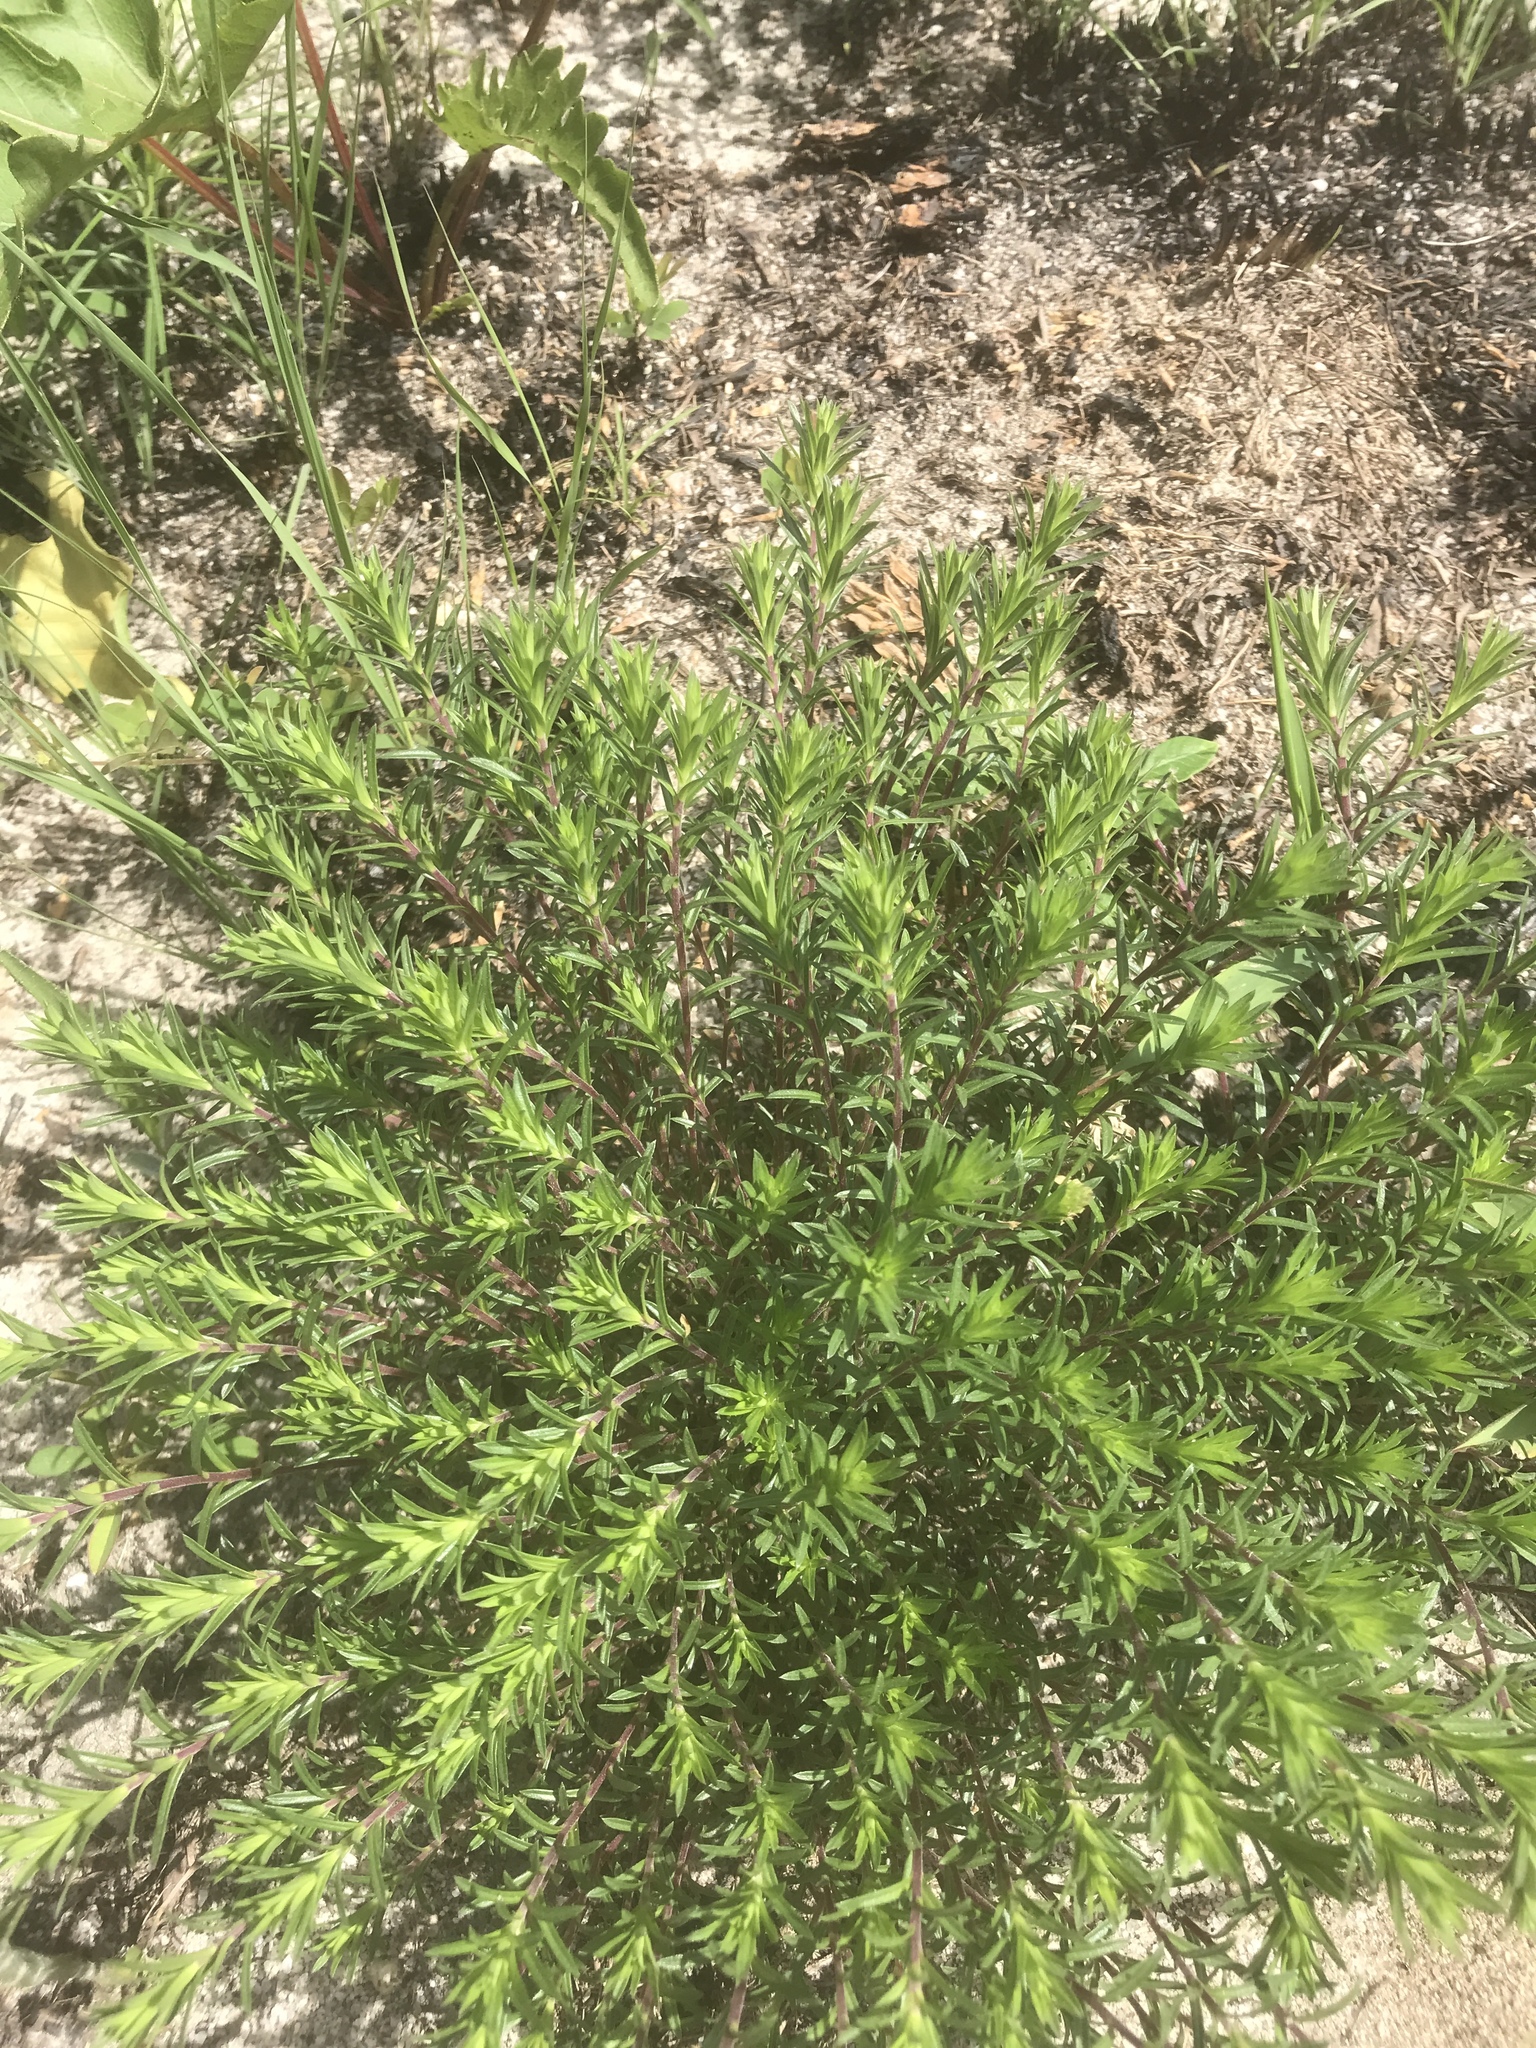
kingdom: Plantae
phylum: Tracheophyta
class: Magnoliopsida
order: Asterales
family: Asteraceae
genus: Ionactis
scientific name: Ionactis linariifolia
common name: Flax-leaf aster
